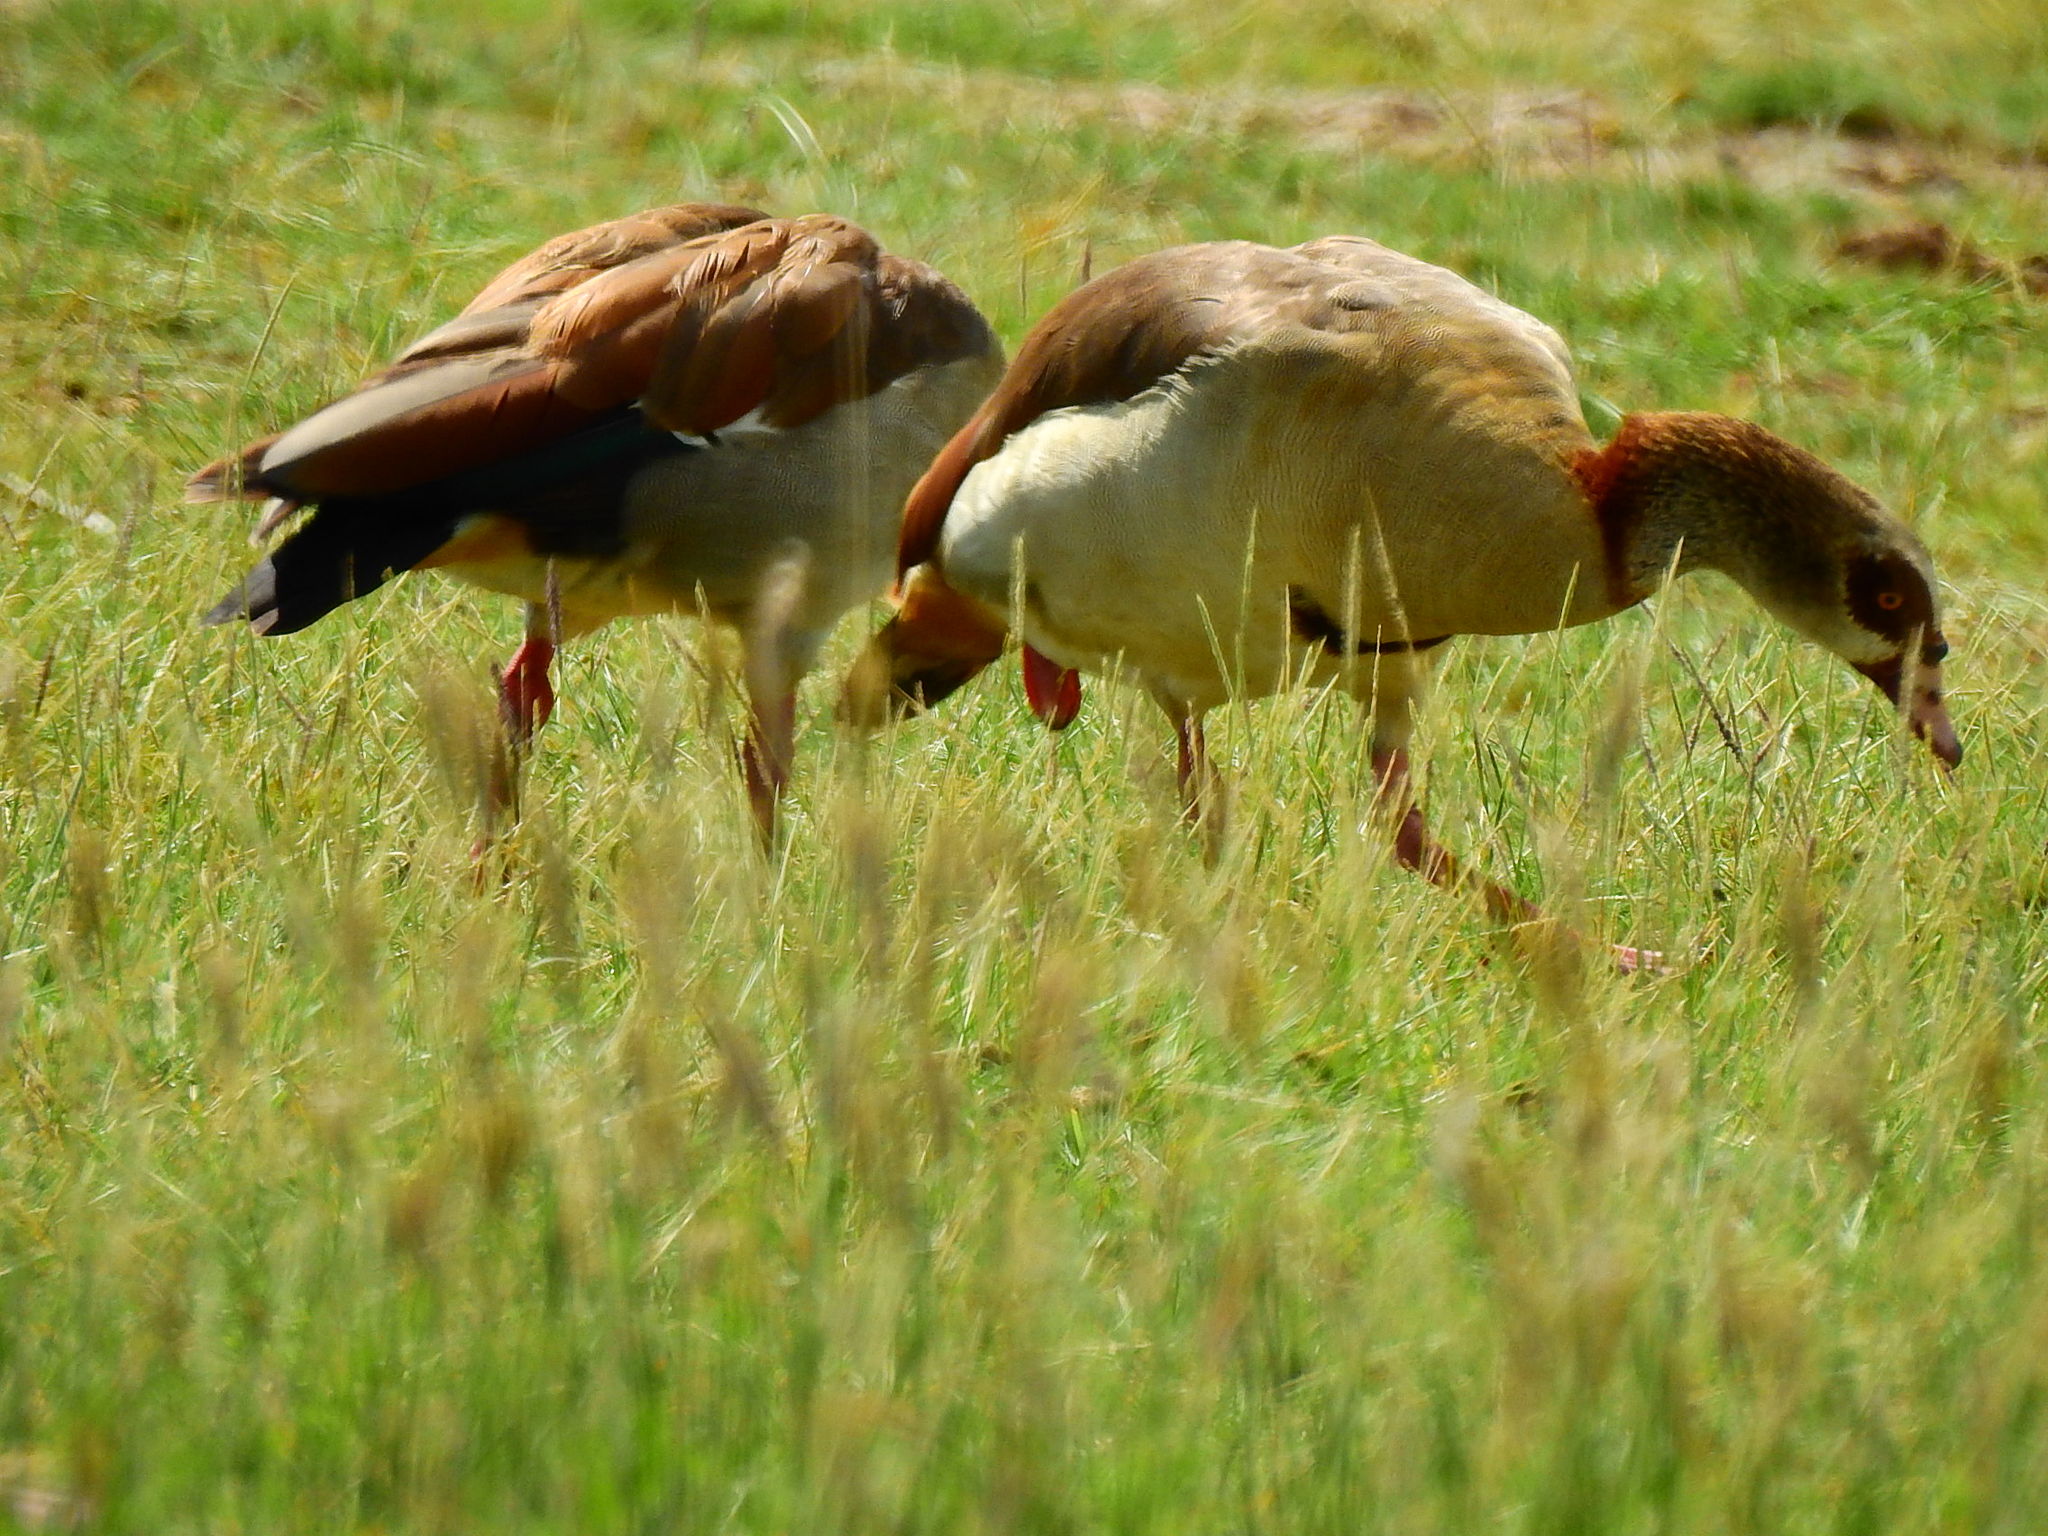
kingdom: Animalia
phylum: Chordata
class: Aves
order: Anseriformes
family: Anatidae
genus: Alopochen
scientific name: Alopochen aegyptiaca
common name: Egyptian goose
